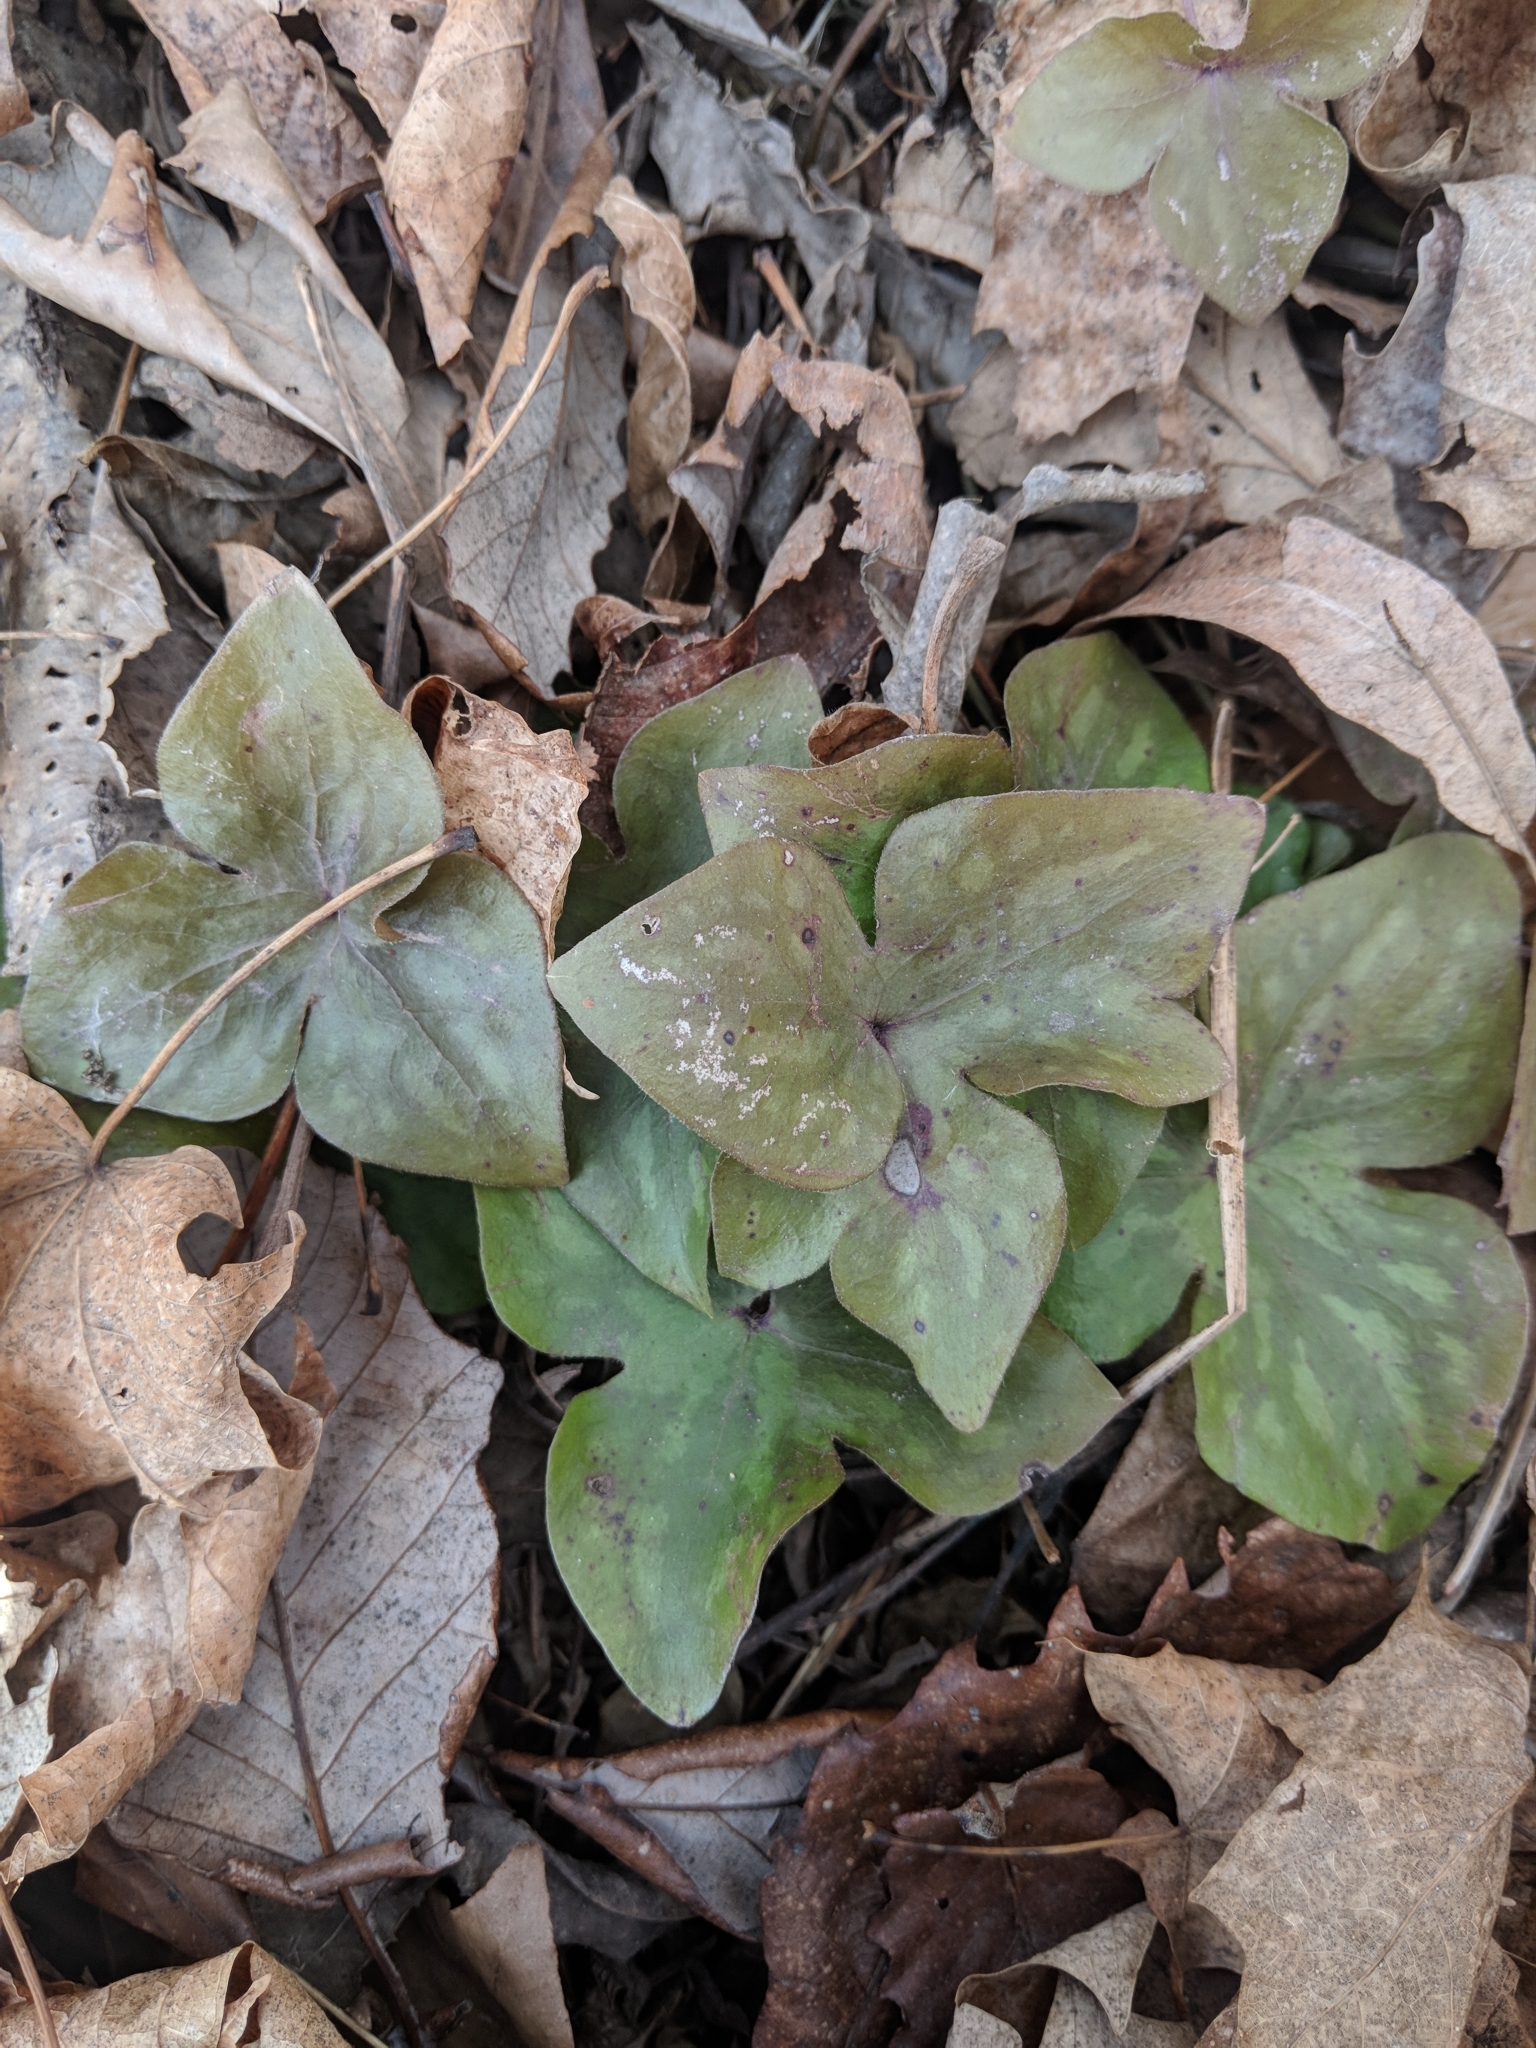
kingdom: Plantae
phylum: Tracheophyta
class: Magnoliopsida
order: Ranunculales
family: Ranunculaceae
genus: Hepatica
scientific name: Hepatica acutiloba
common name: Sharp-lobed hepatica
